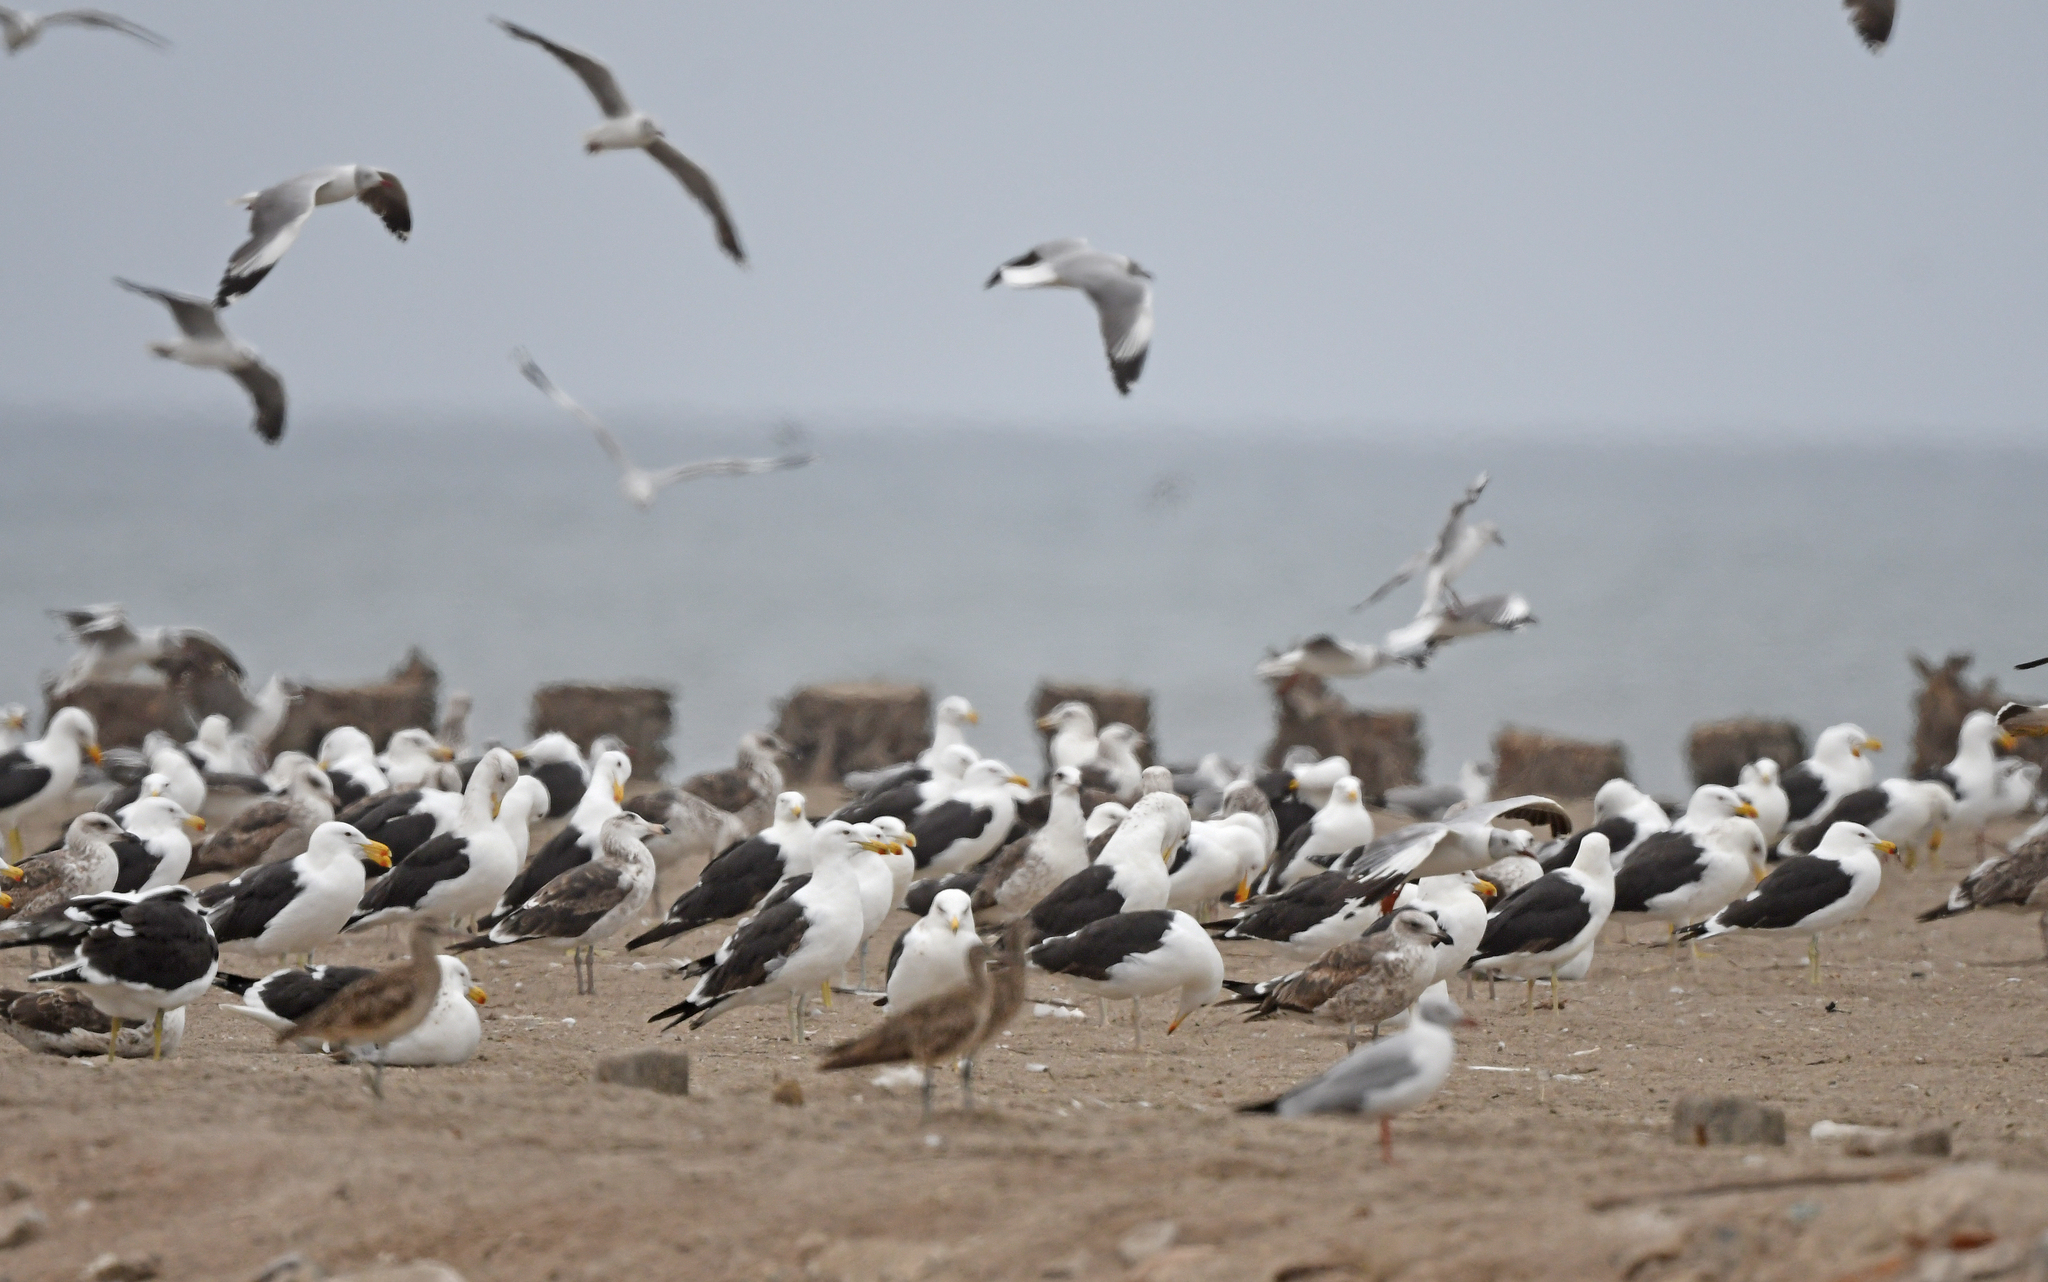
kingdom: Animalia
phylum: Chordata
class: Aves
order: Charadriiformes
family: Laridae
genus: Larus
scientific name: Larus dominicanus
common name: Kelp gull
